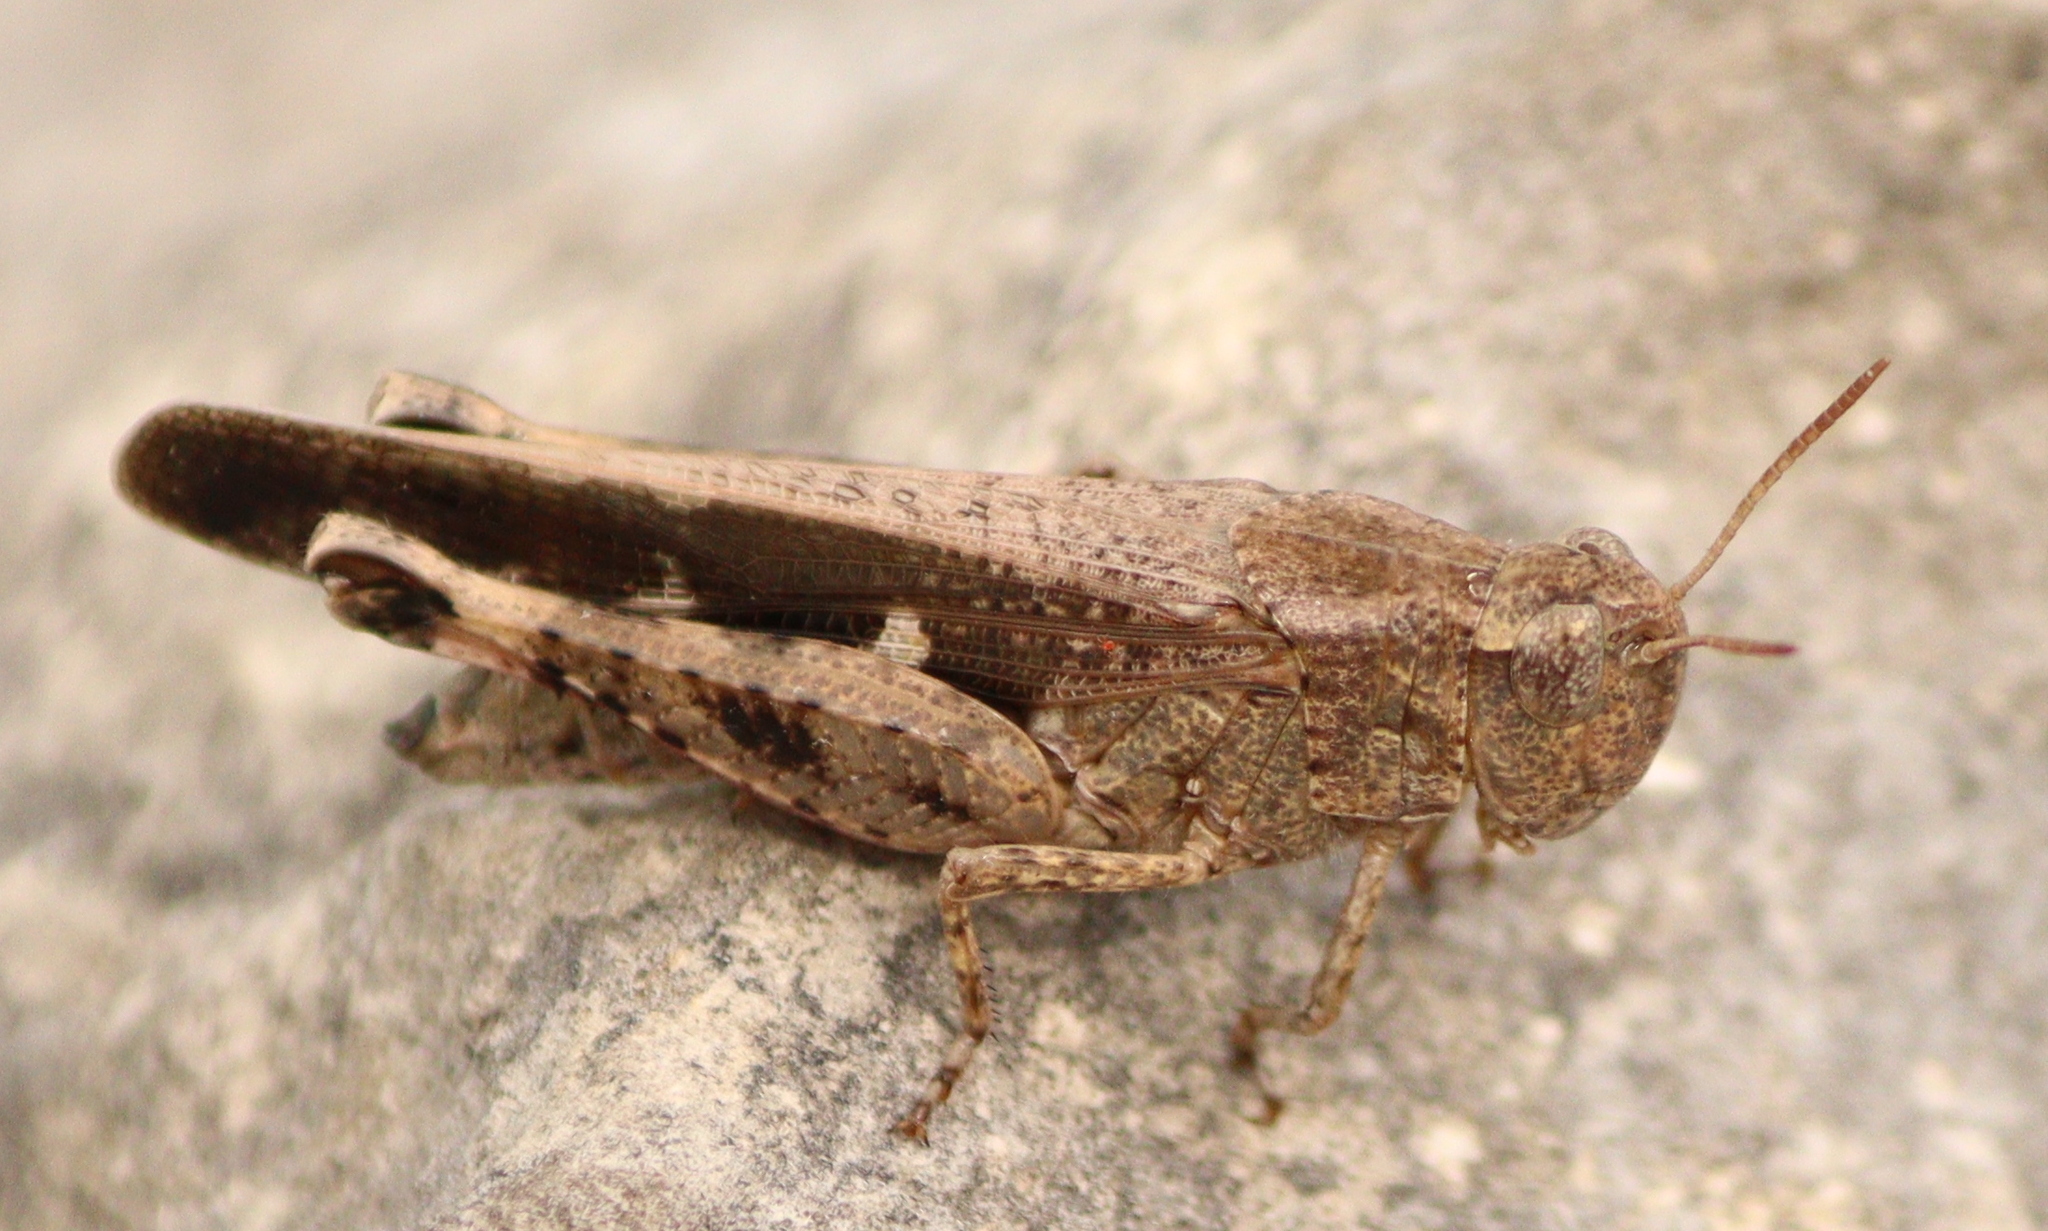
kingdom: Animalia
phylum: Arthropoda
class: Insecta
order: Orthoptera
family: Acrididae
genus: Aiolopus
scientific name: Aiolopus strepens
